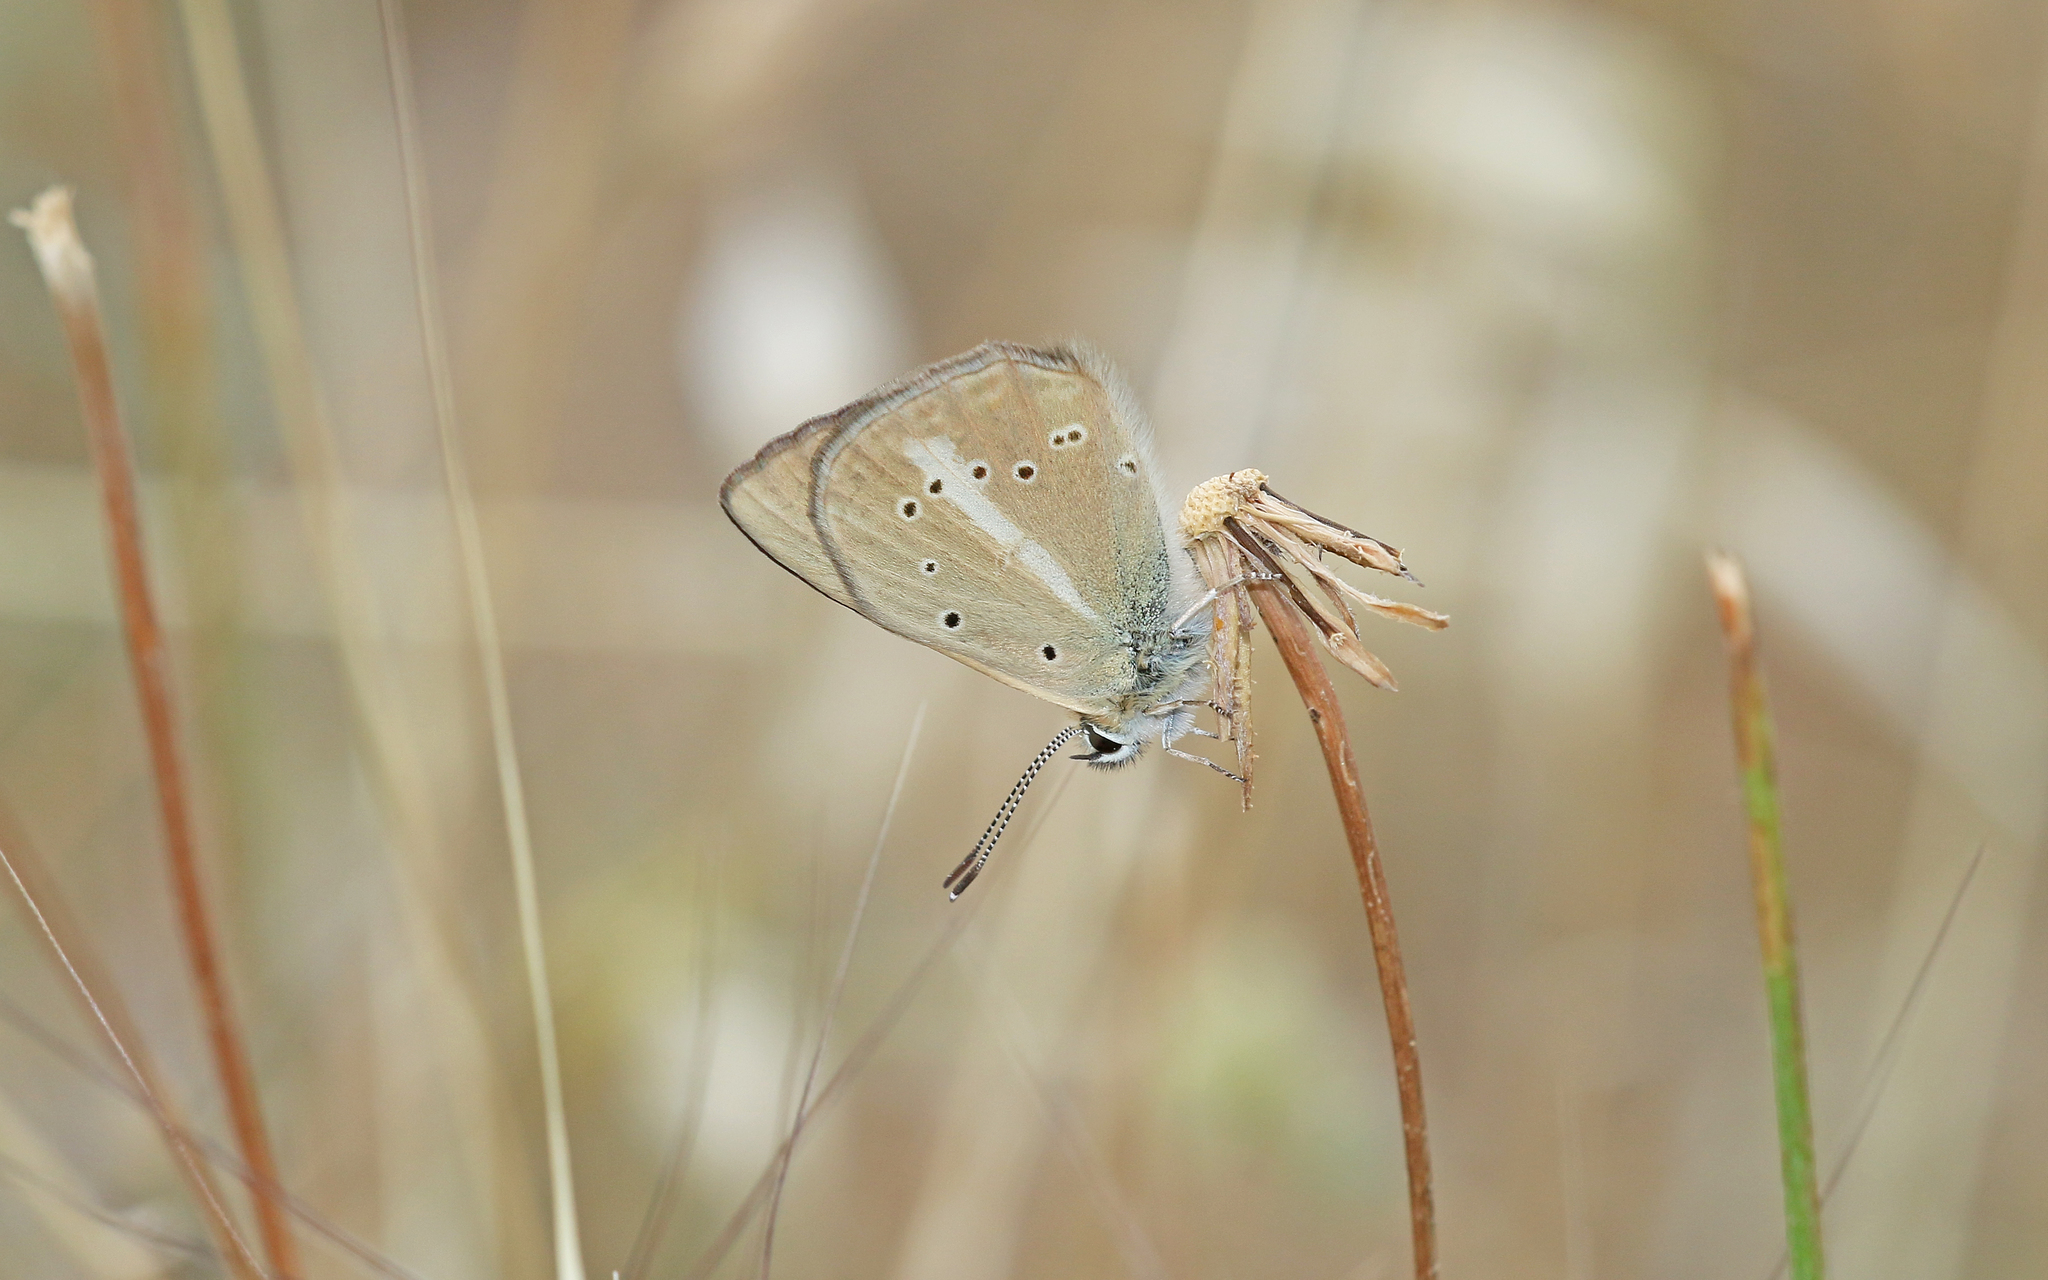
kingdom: Animalia
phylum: Arthropoda
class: Insecta
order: Lepidoptera
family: Lycaenidae
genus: Polyommatus
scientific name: Polyommatus ripartii
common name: Ripart's anomalous blue
